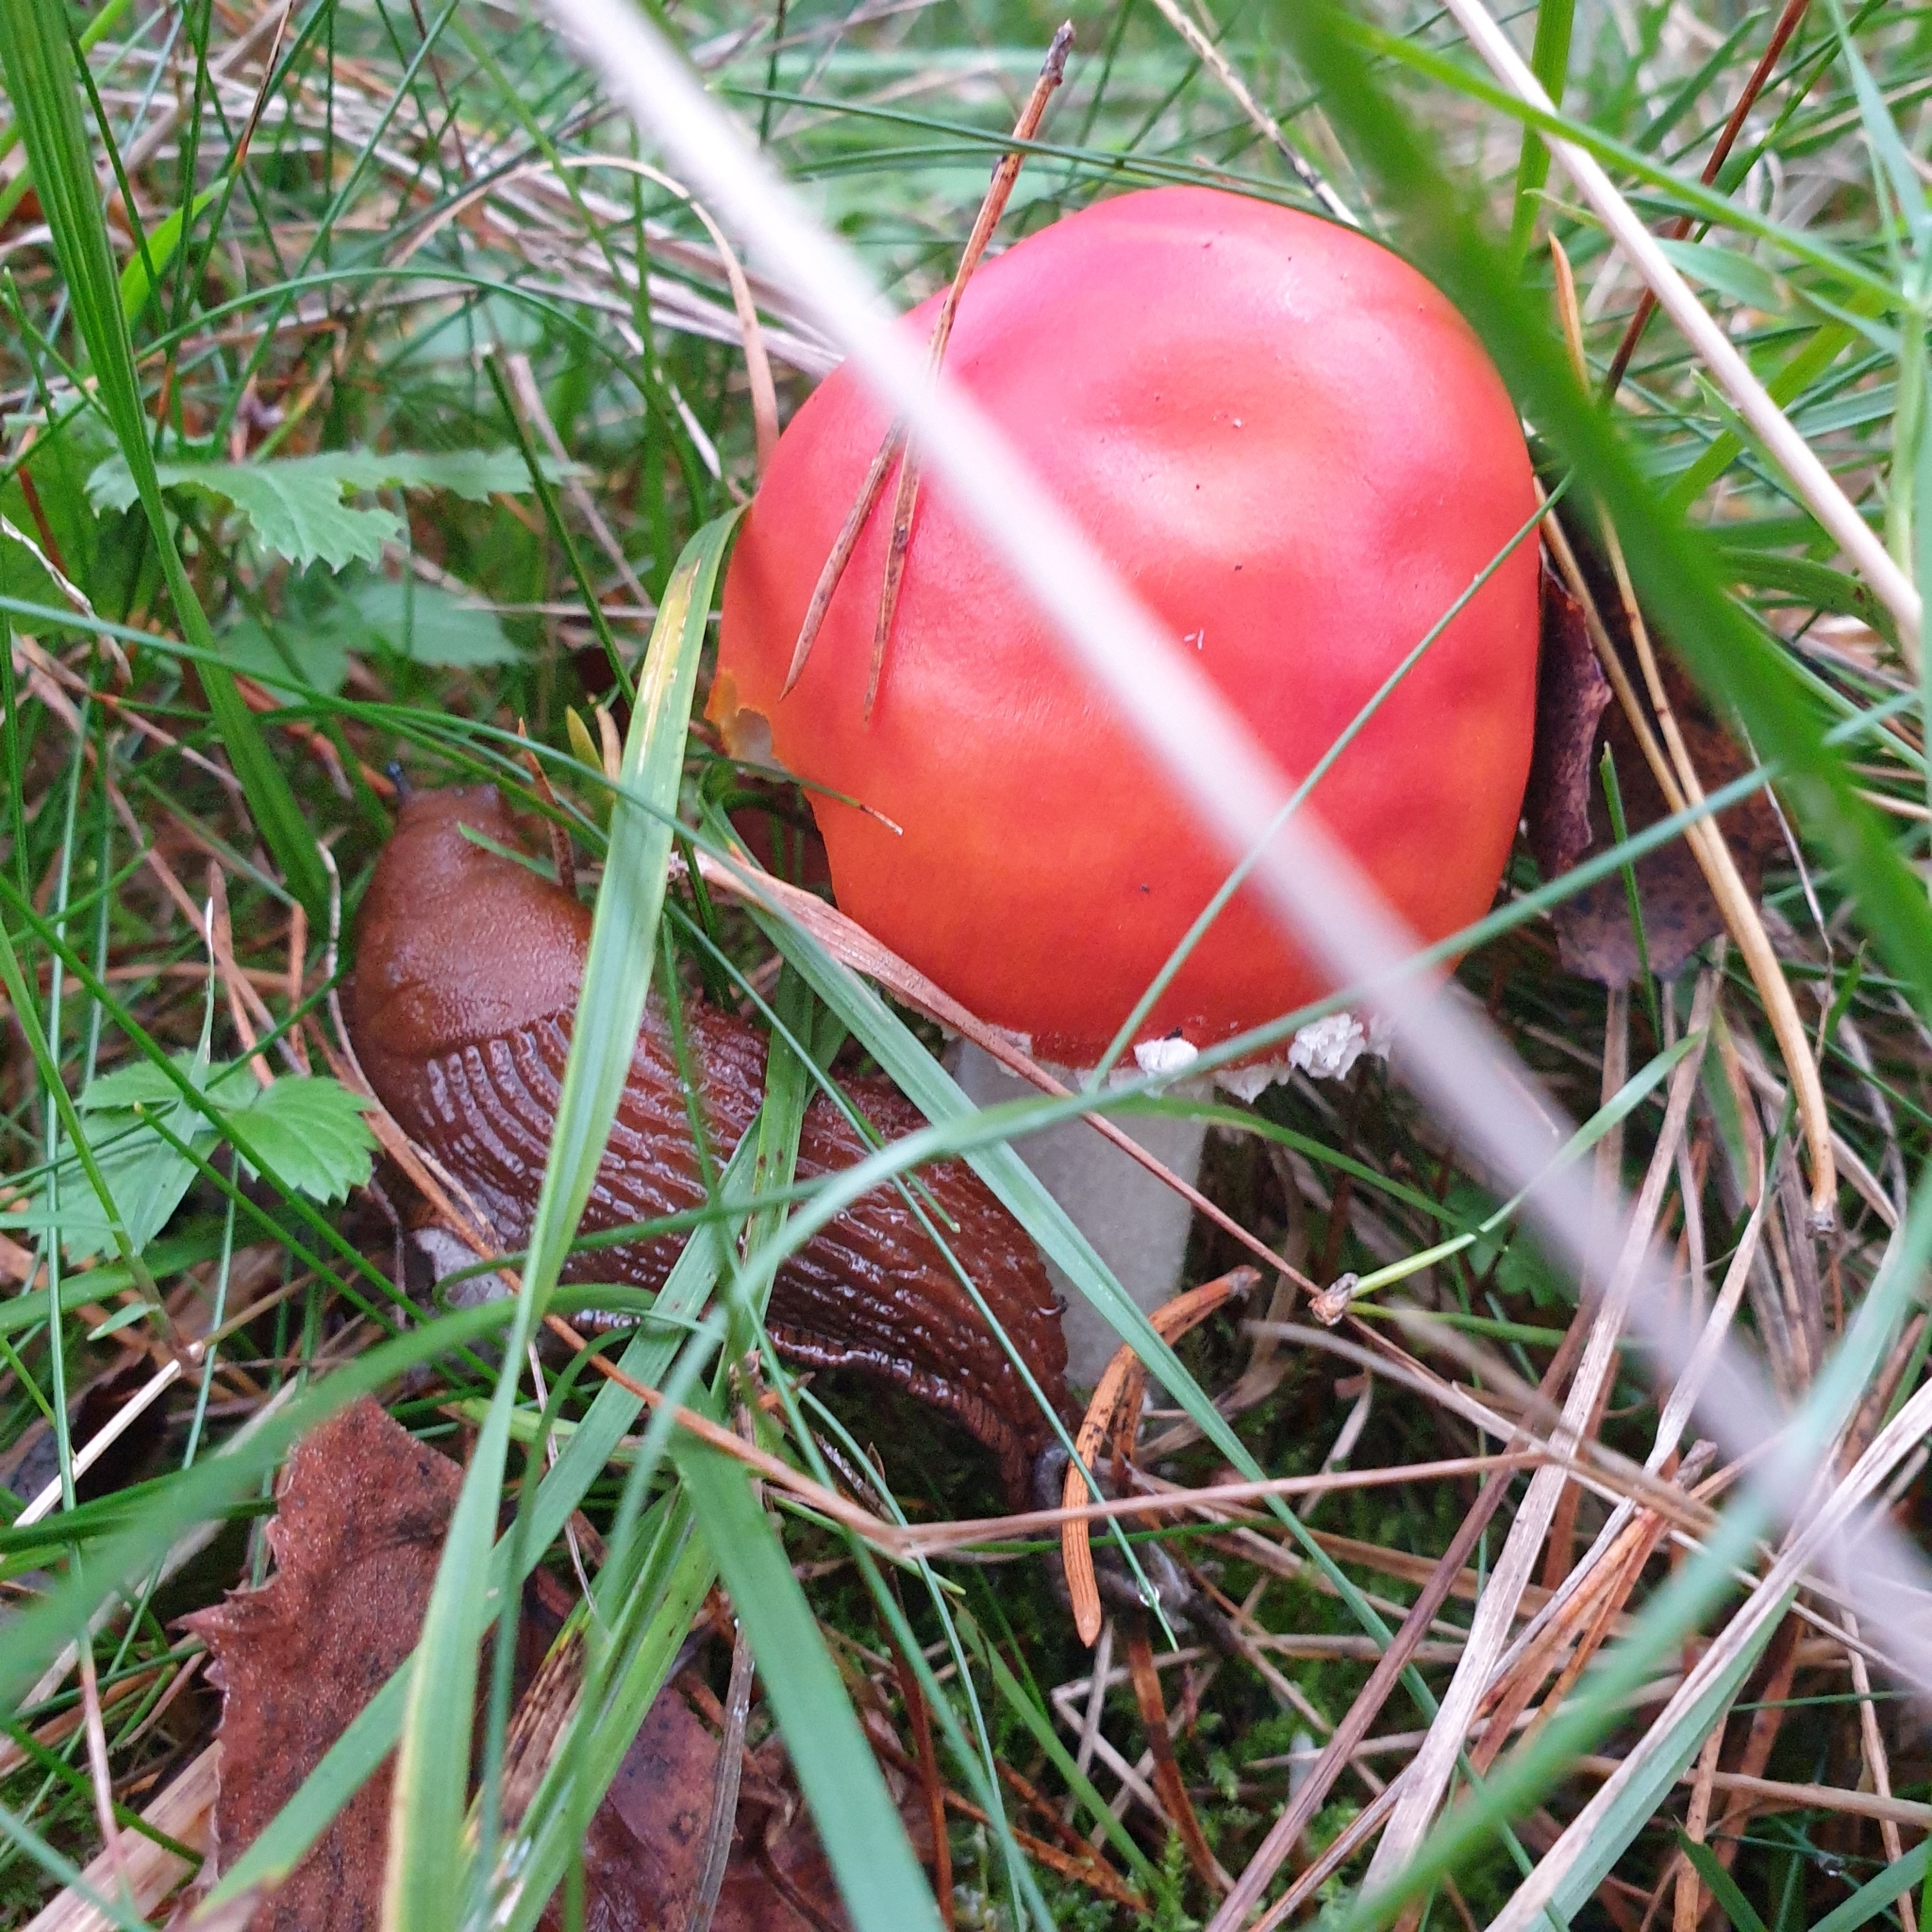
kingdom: Fungi
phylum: Basidiomycota
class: Agaricomycetes
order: Agaricales
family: Amanitaceae
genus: Amanita
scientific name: Amanita muscaria
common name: Fly agaric
